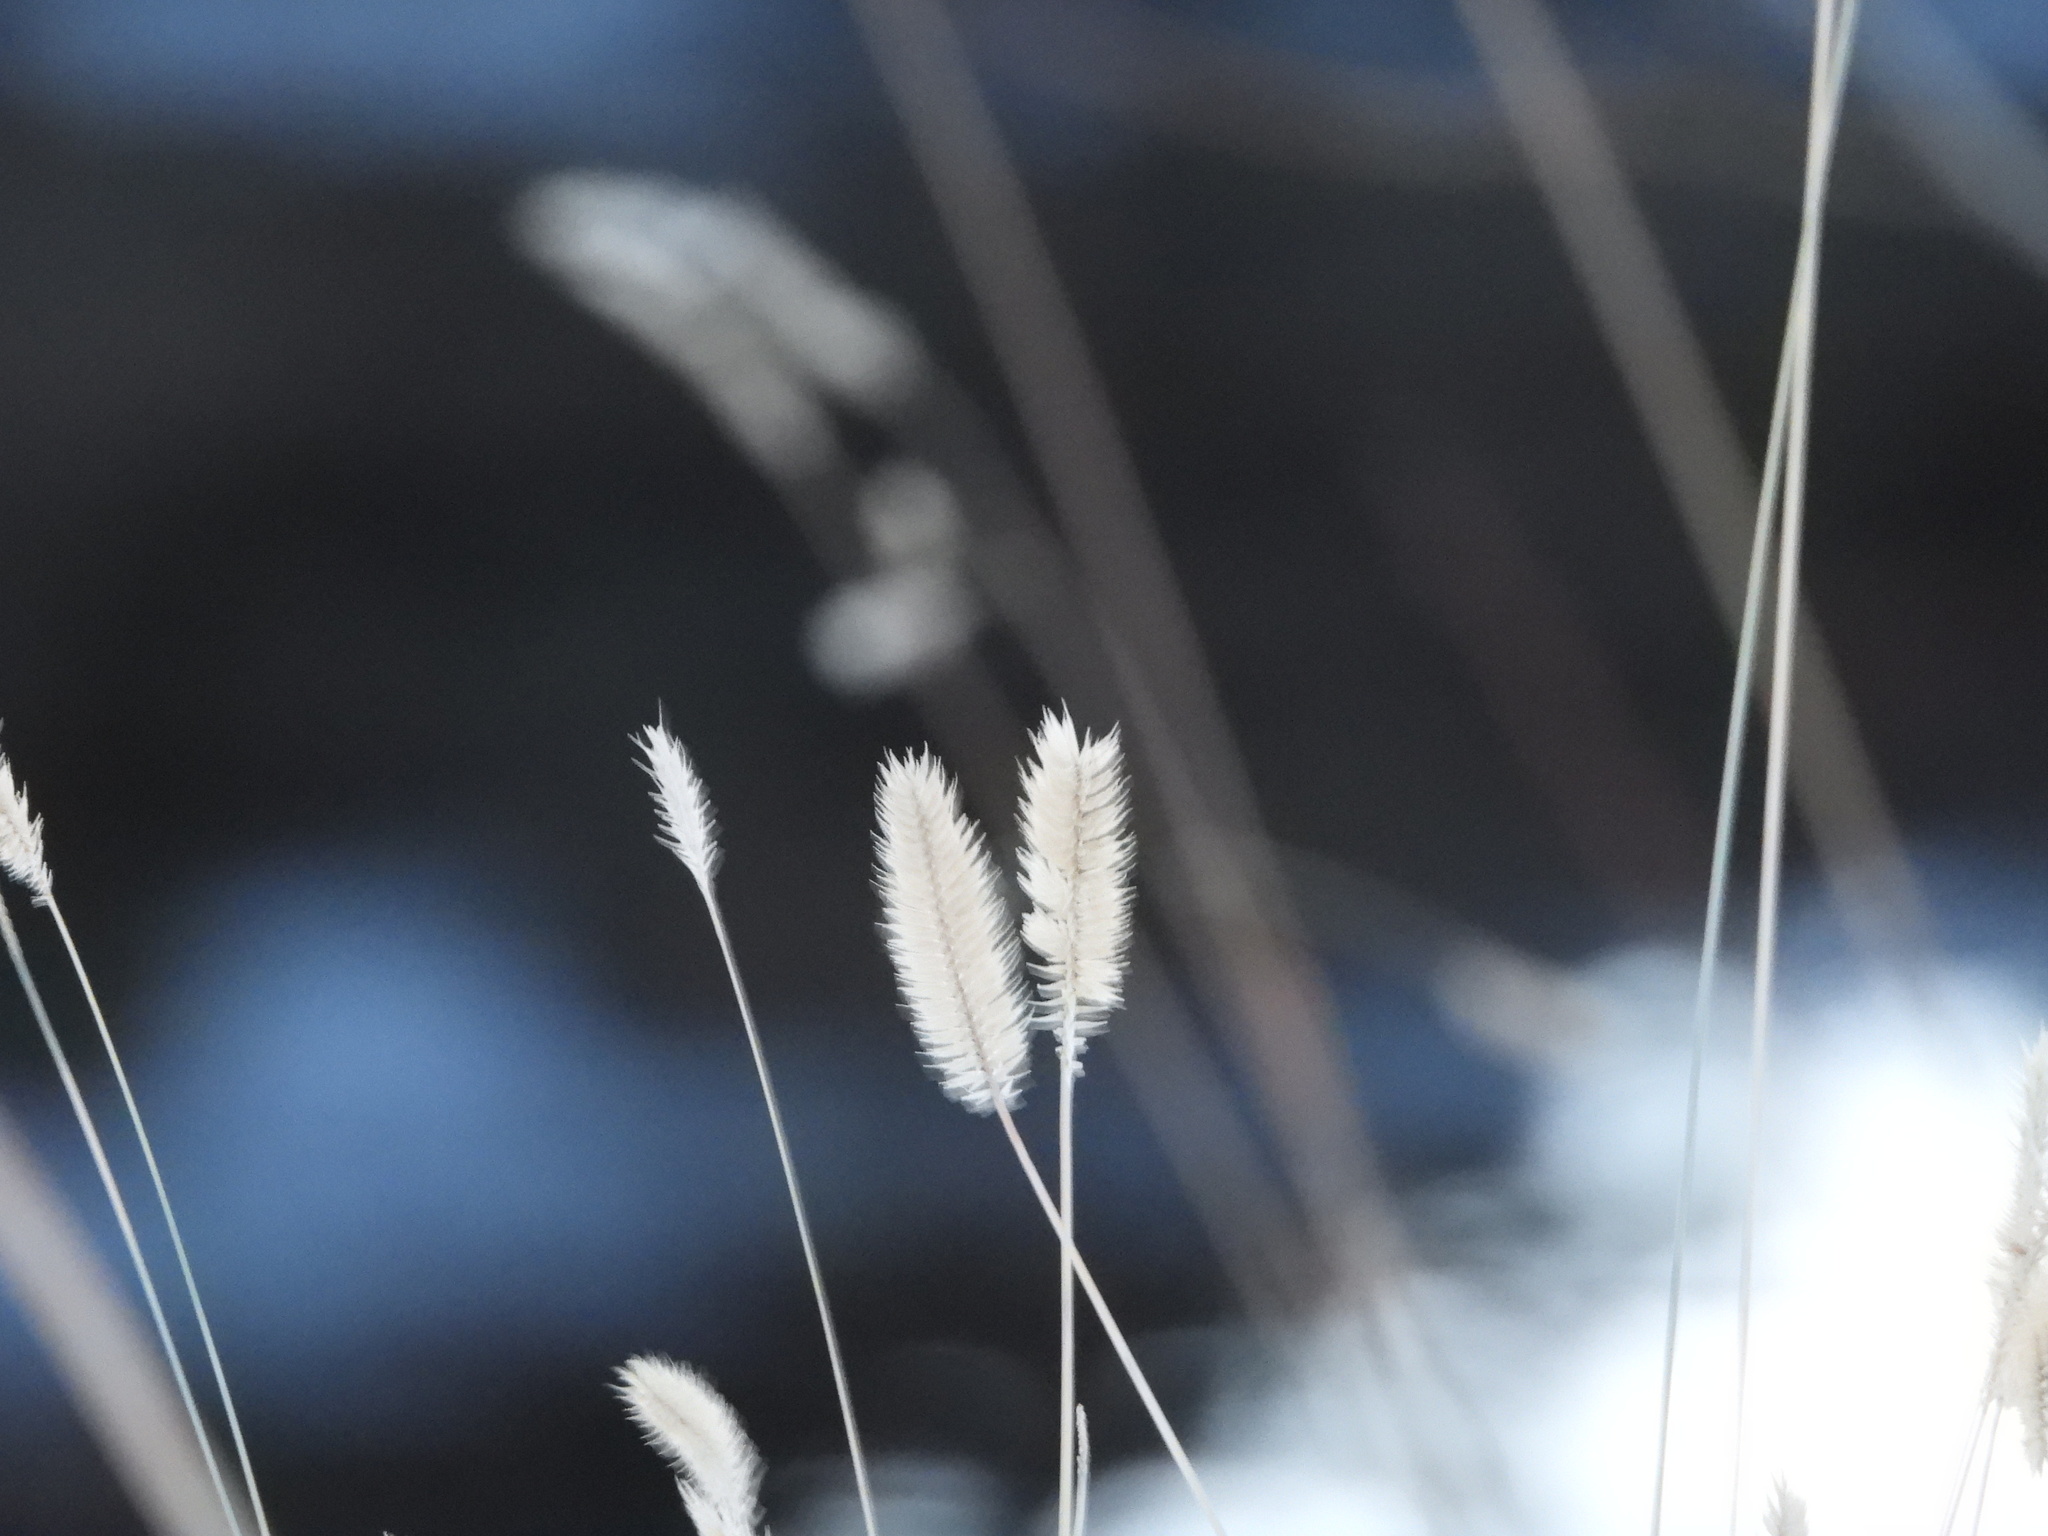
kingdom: Plantae
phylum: Tracheophyta
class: Liliopsida
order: Poales
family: Poaceae
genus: Agropyron
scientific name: Agropyron cristatum
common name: Crested wheatgrass
